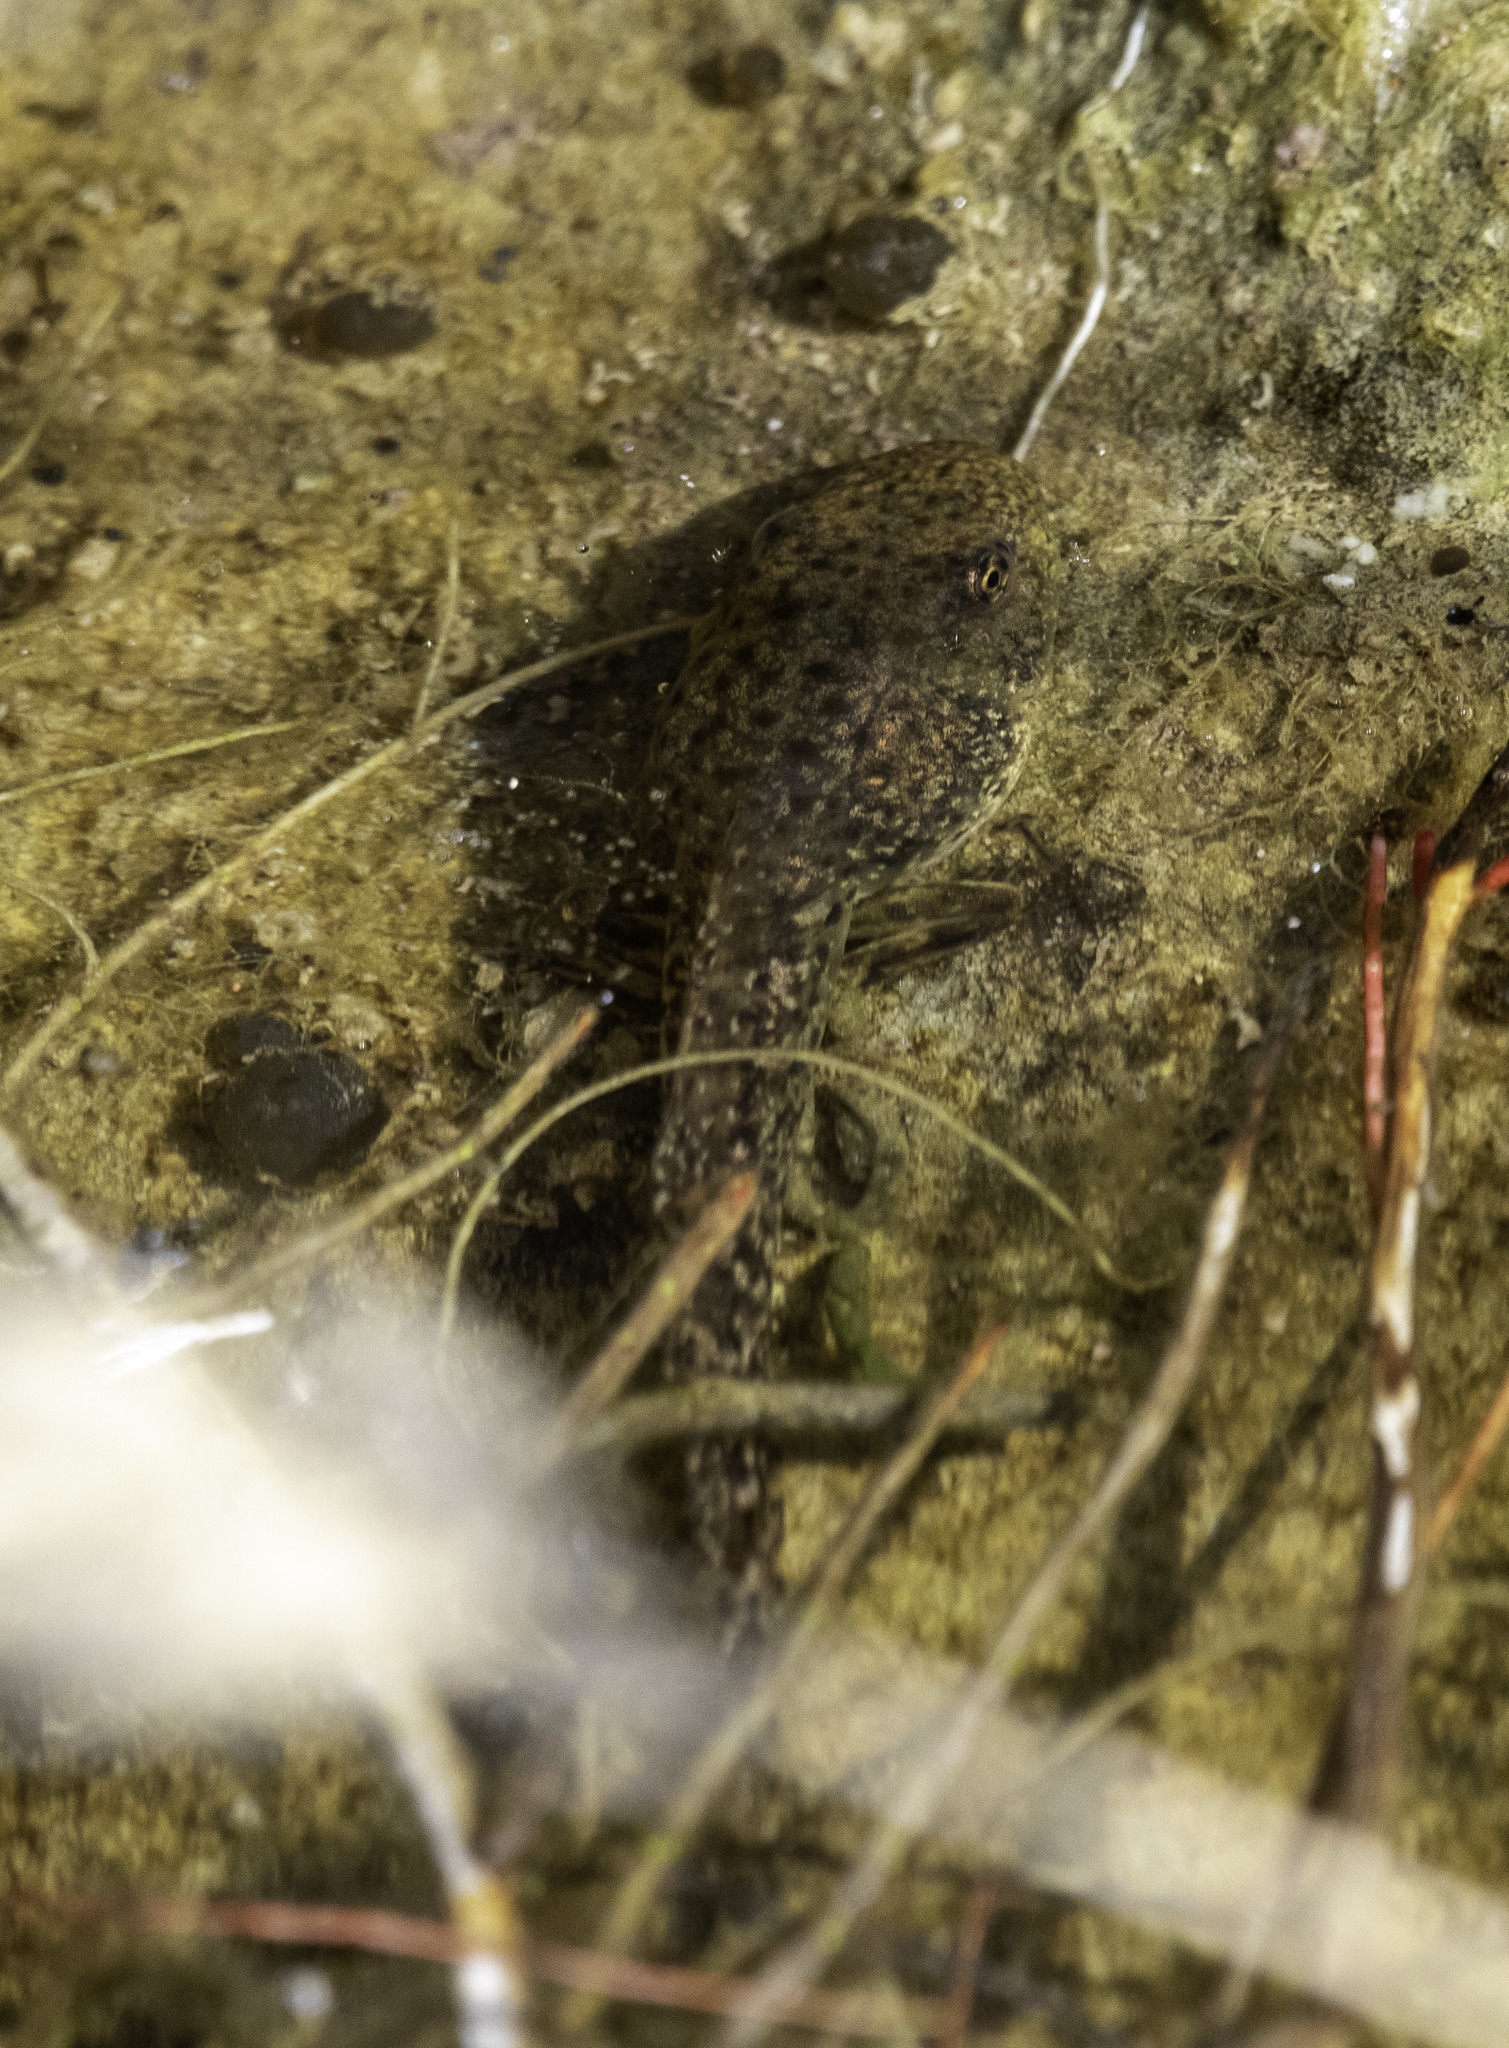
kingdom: Animalia
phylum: Chordata
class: Amphibia
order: Anura
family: Ranidae
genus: Rana
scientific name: Rana draytonii
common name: California red-legged frog
